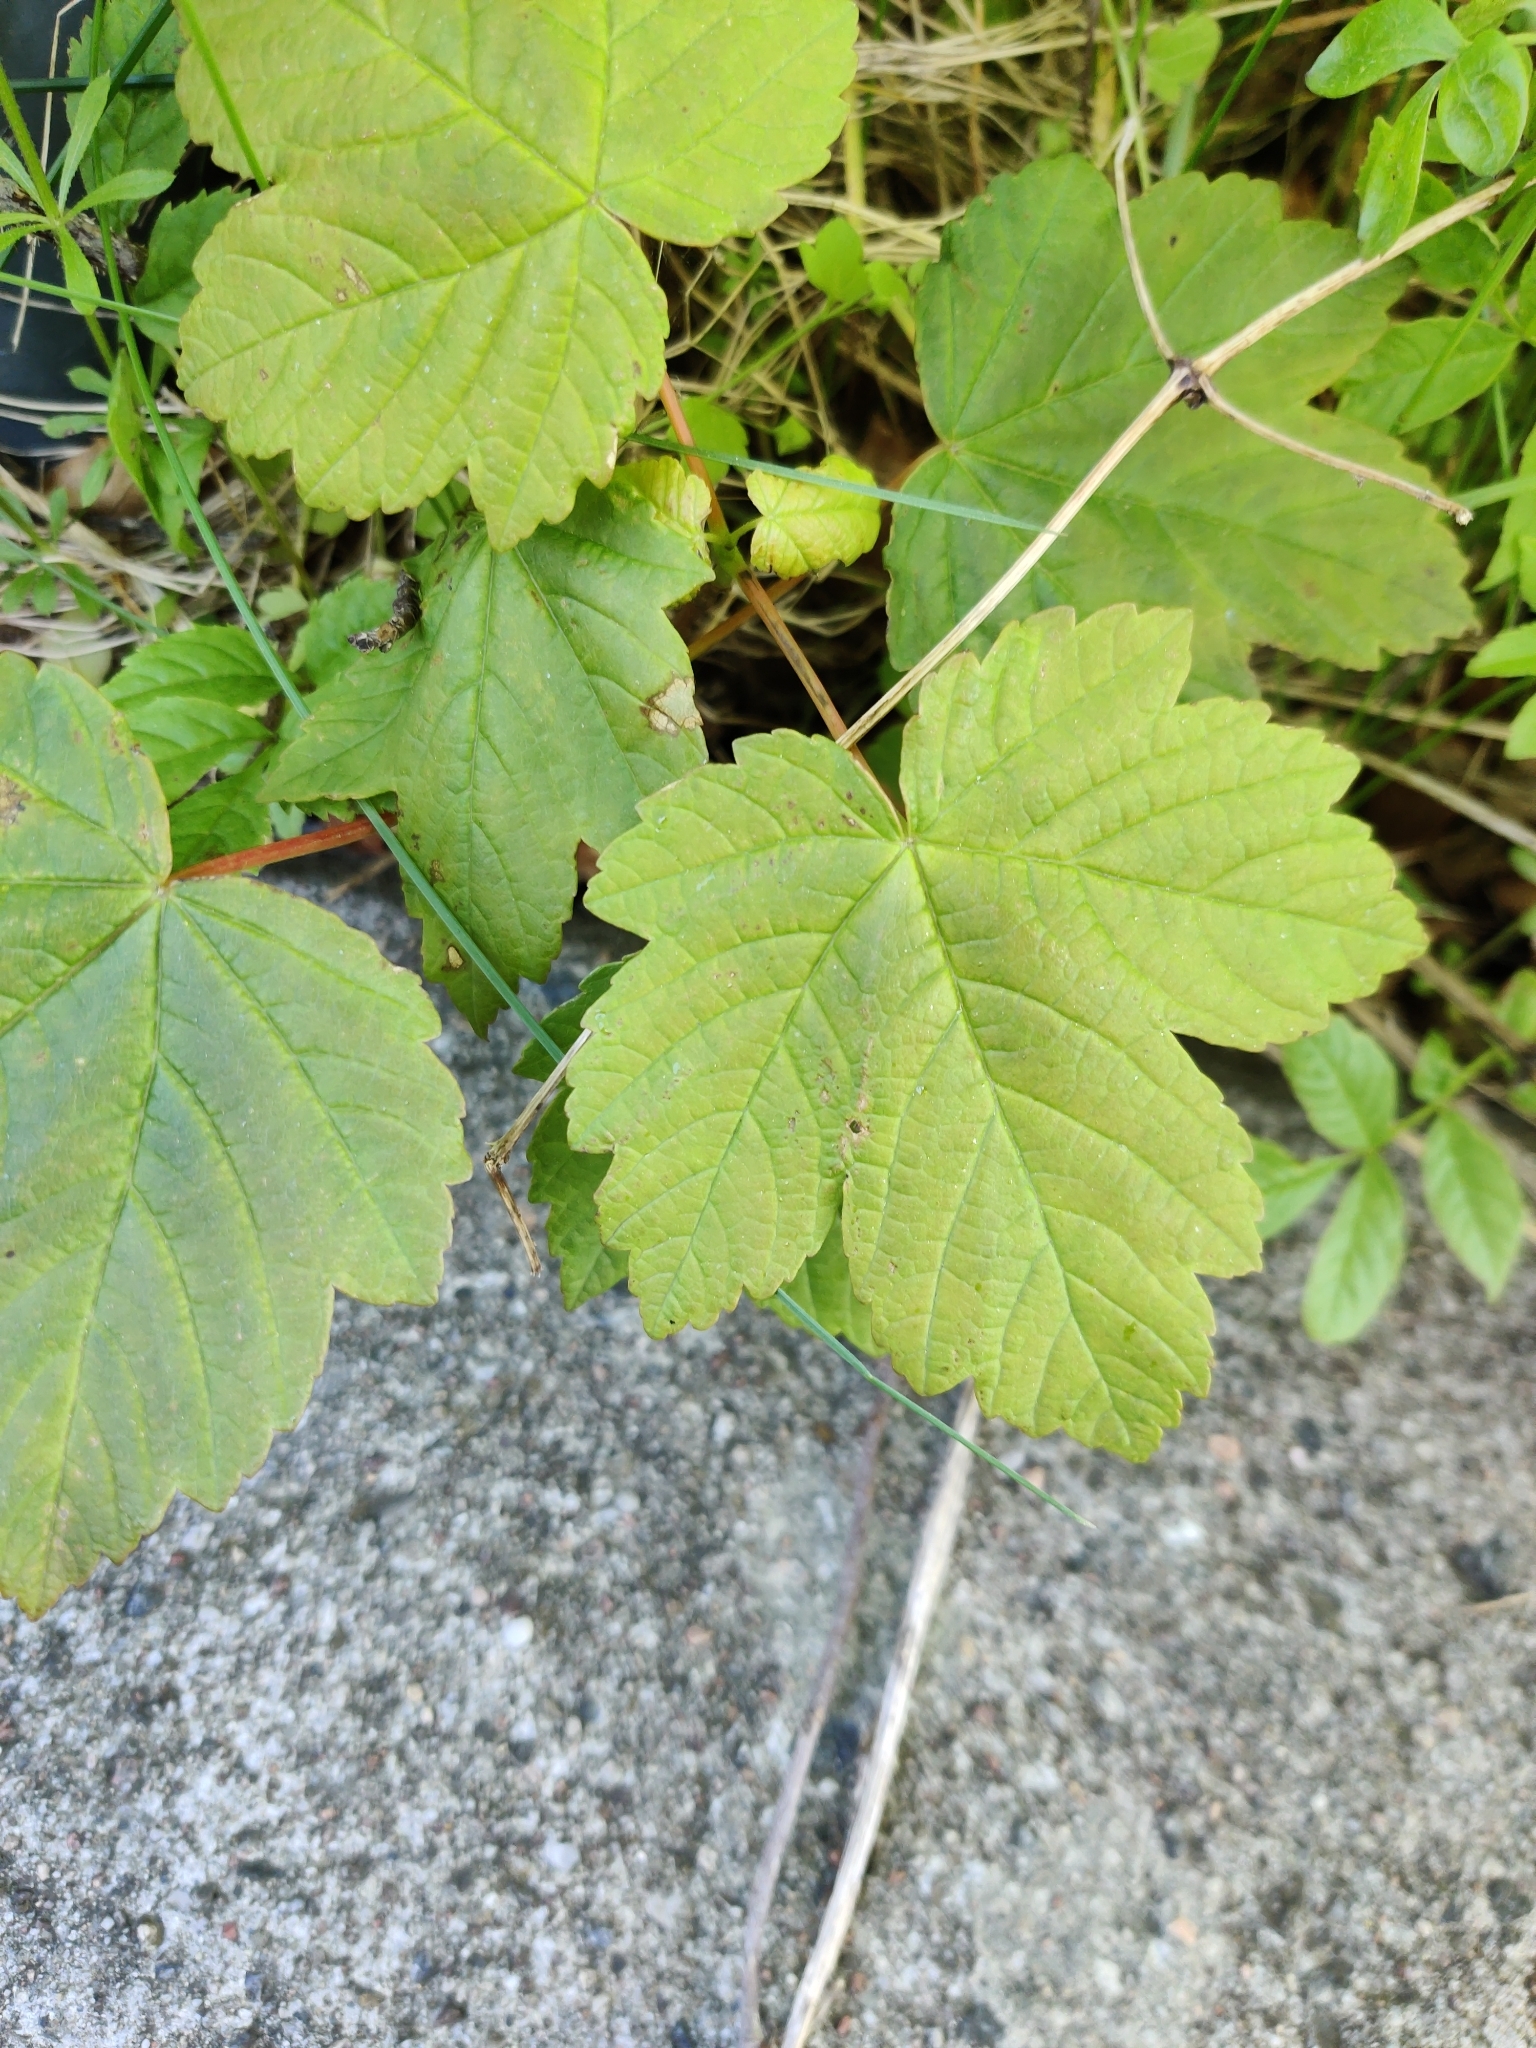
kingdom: Plantae
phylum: Tracheophyta
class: Magnoliopsida
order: Sapindales
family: Sapindaceae
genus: Acer
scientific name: Acer pseudoplatanus
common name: Sycamore
